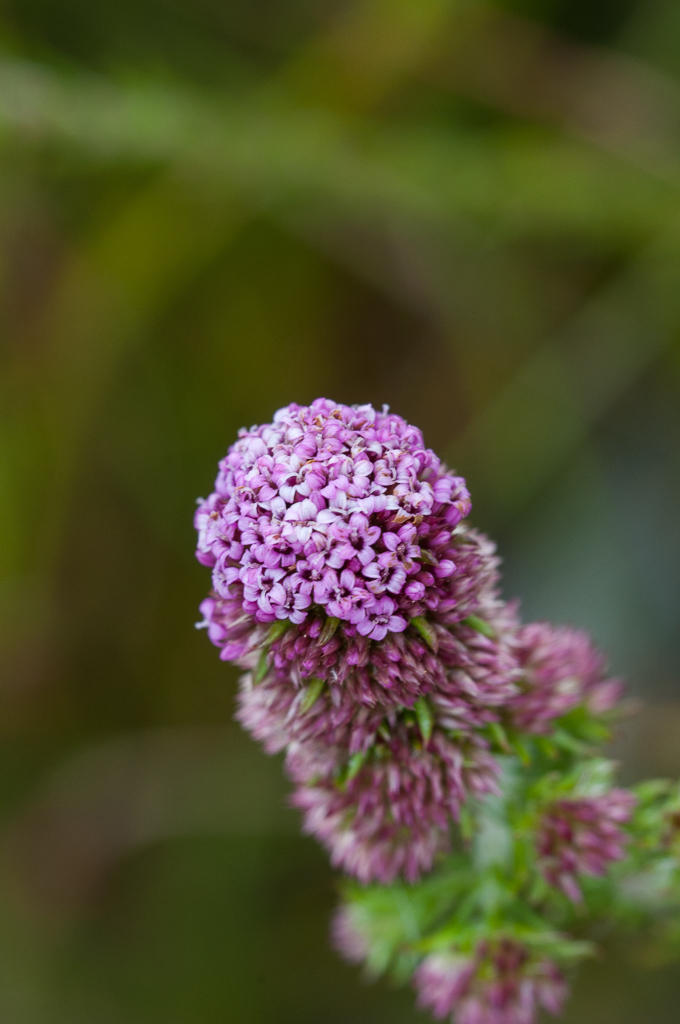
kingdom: Plantae
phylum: Tracheophyta
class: Magnoliopsida
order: Asterales
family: Asteraceae
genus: Stoebe
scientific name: Stoebe capitata
